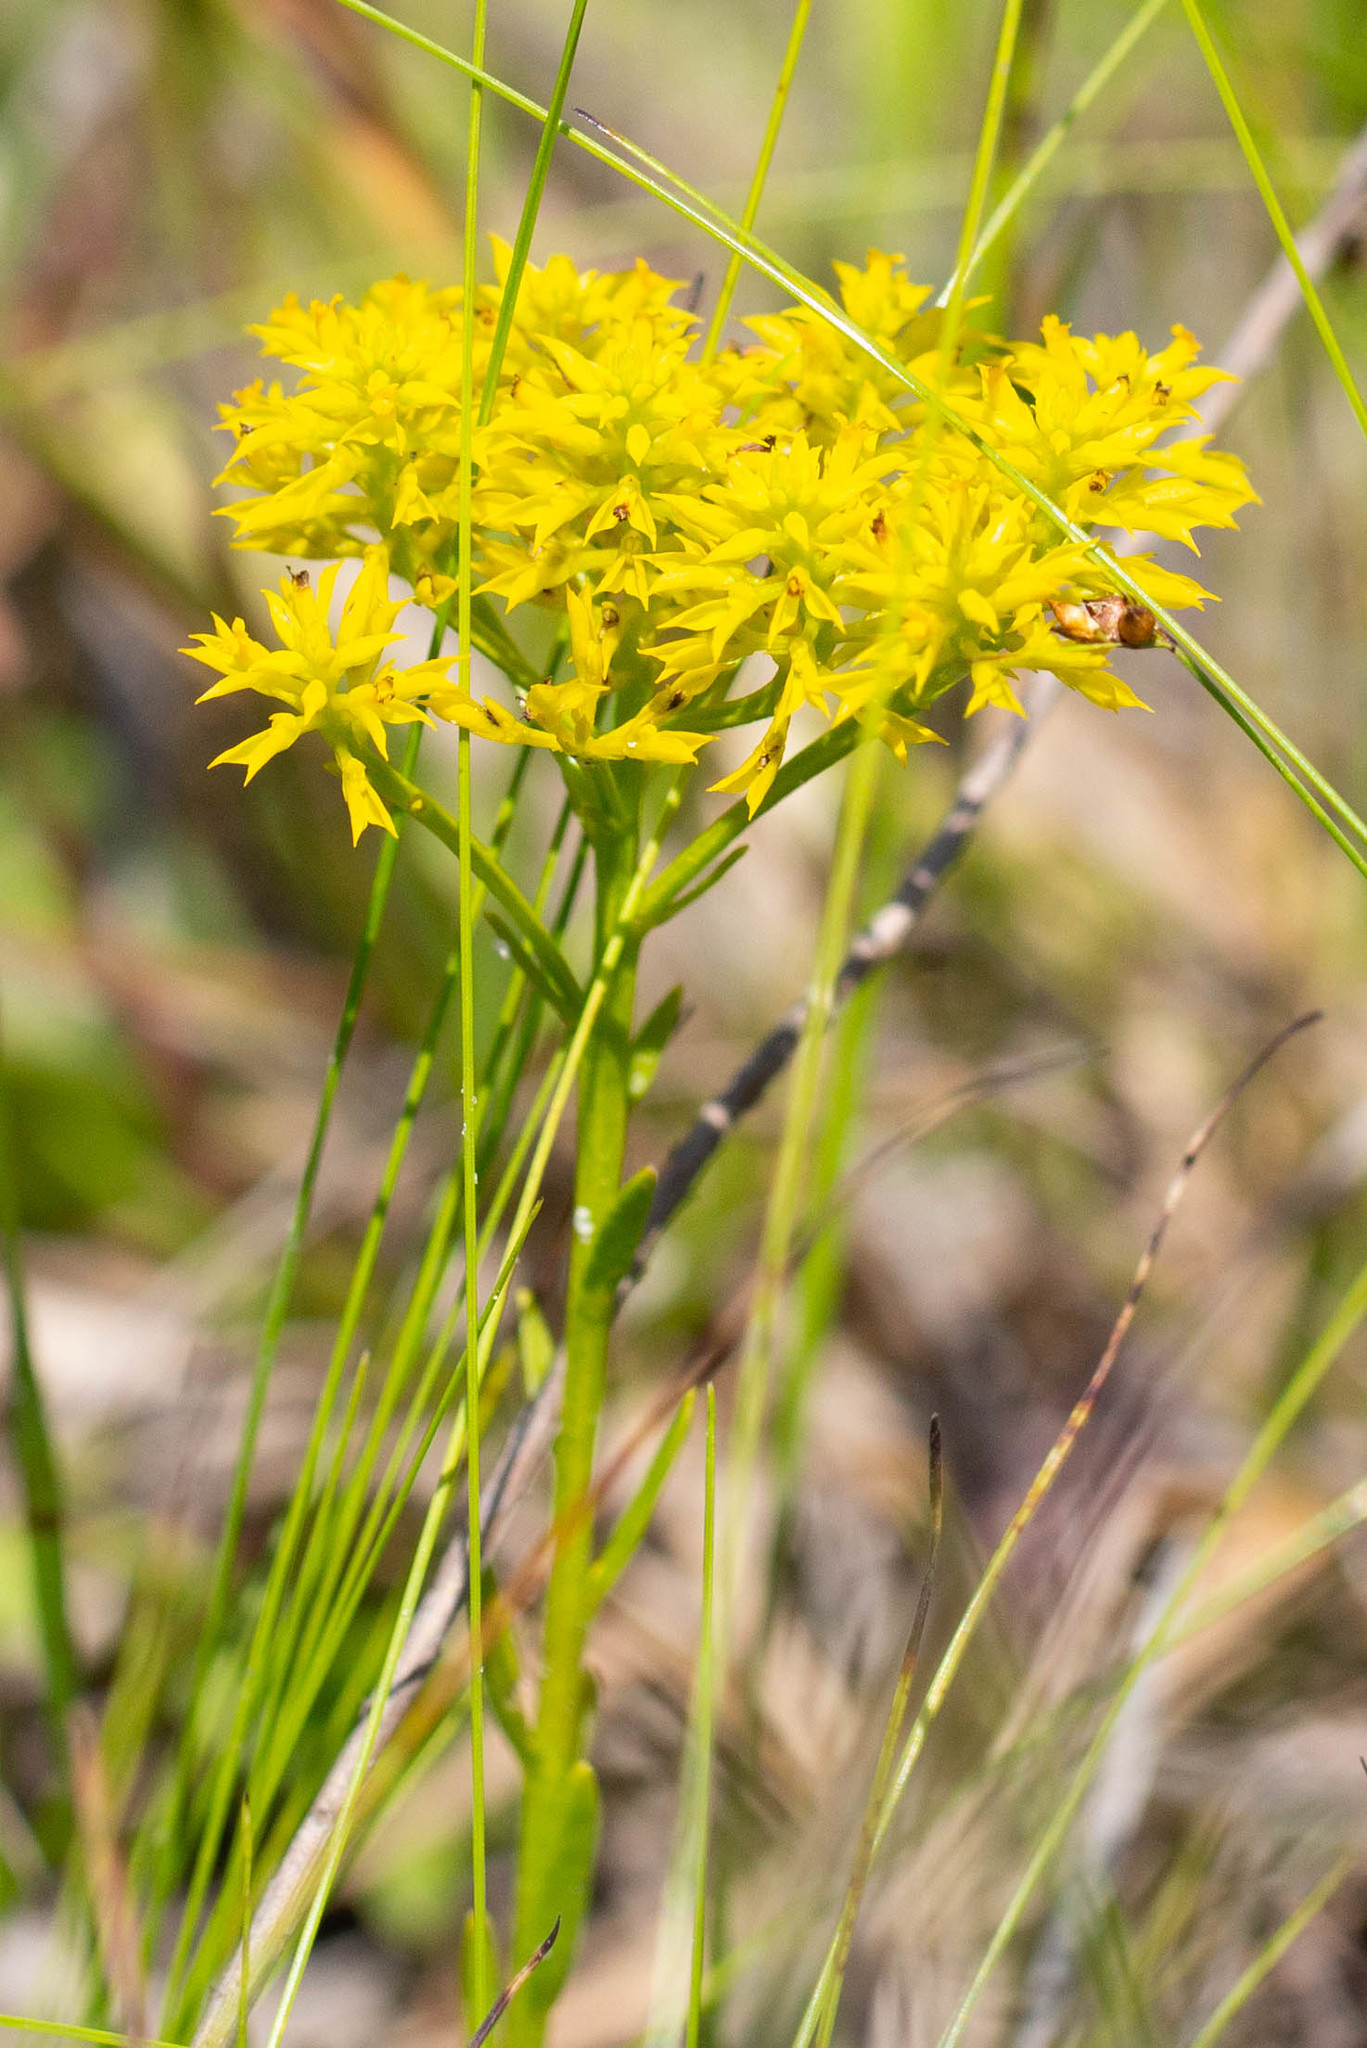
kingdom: Plantae
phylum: Tracheophyta
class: Magnoliopsida
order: Fabales
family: Polygalaceae
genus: Polygala
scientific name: Polygala ramosa
